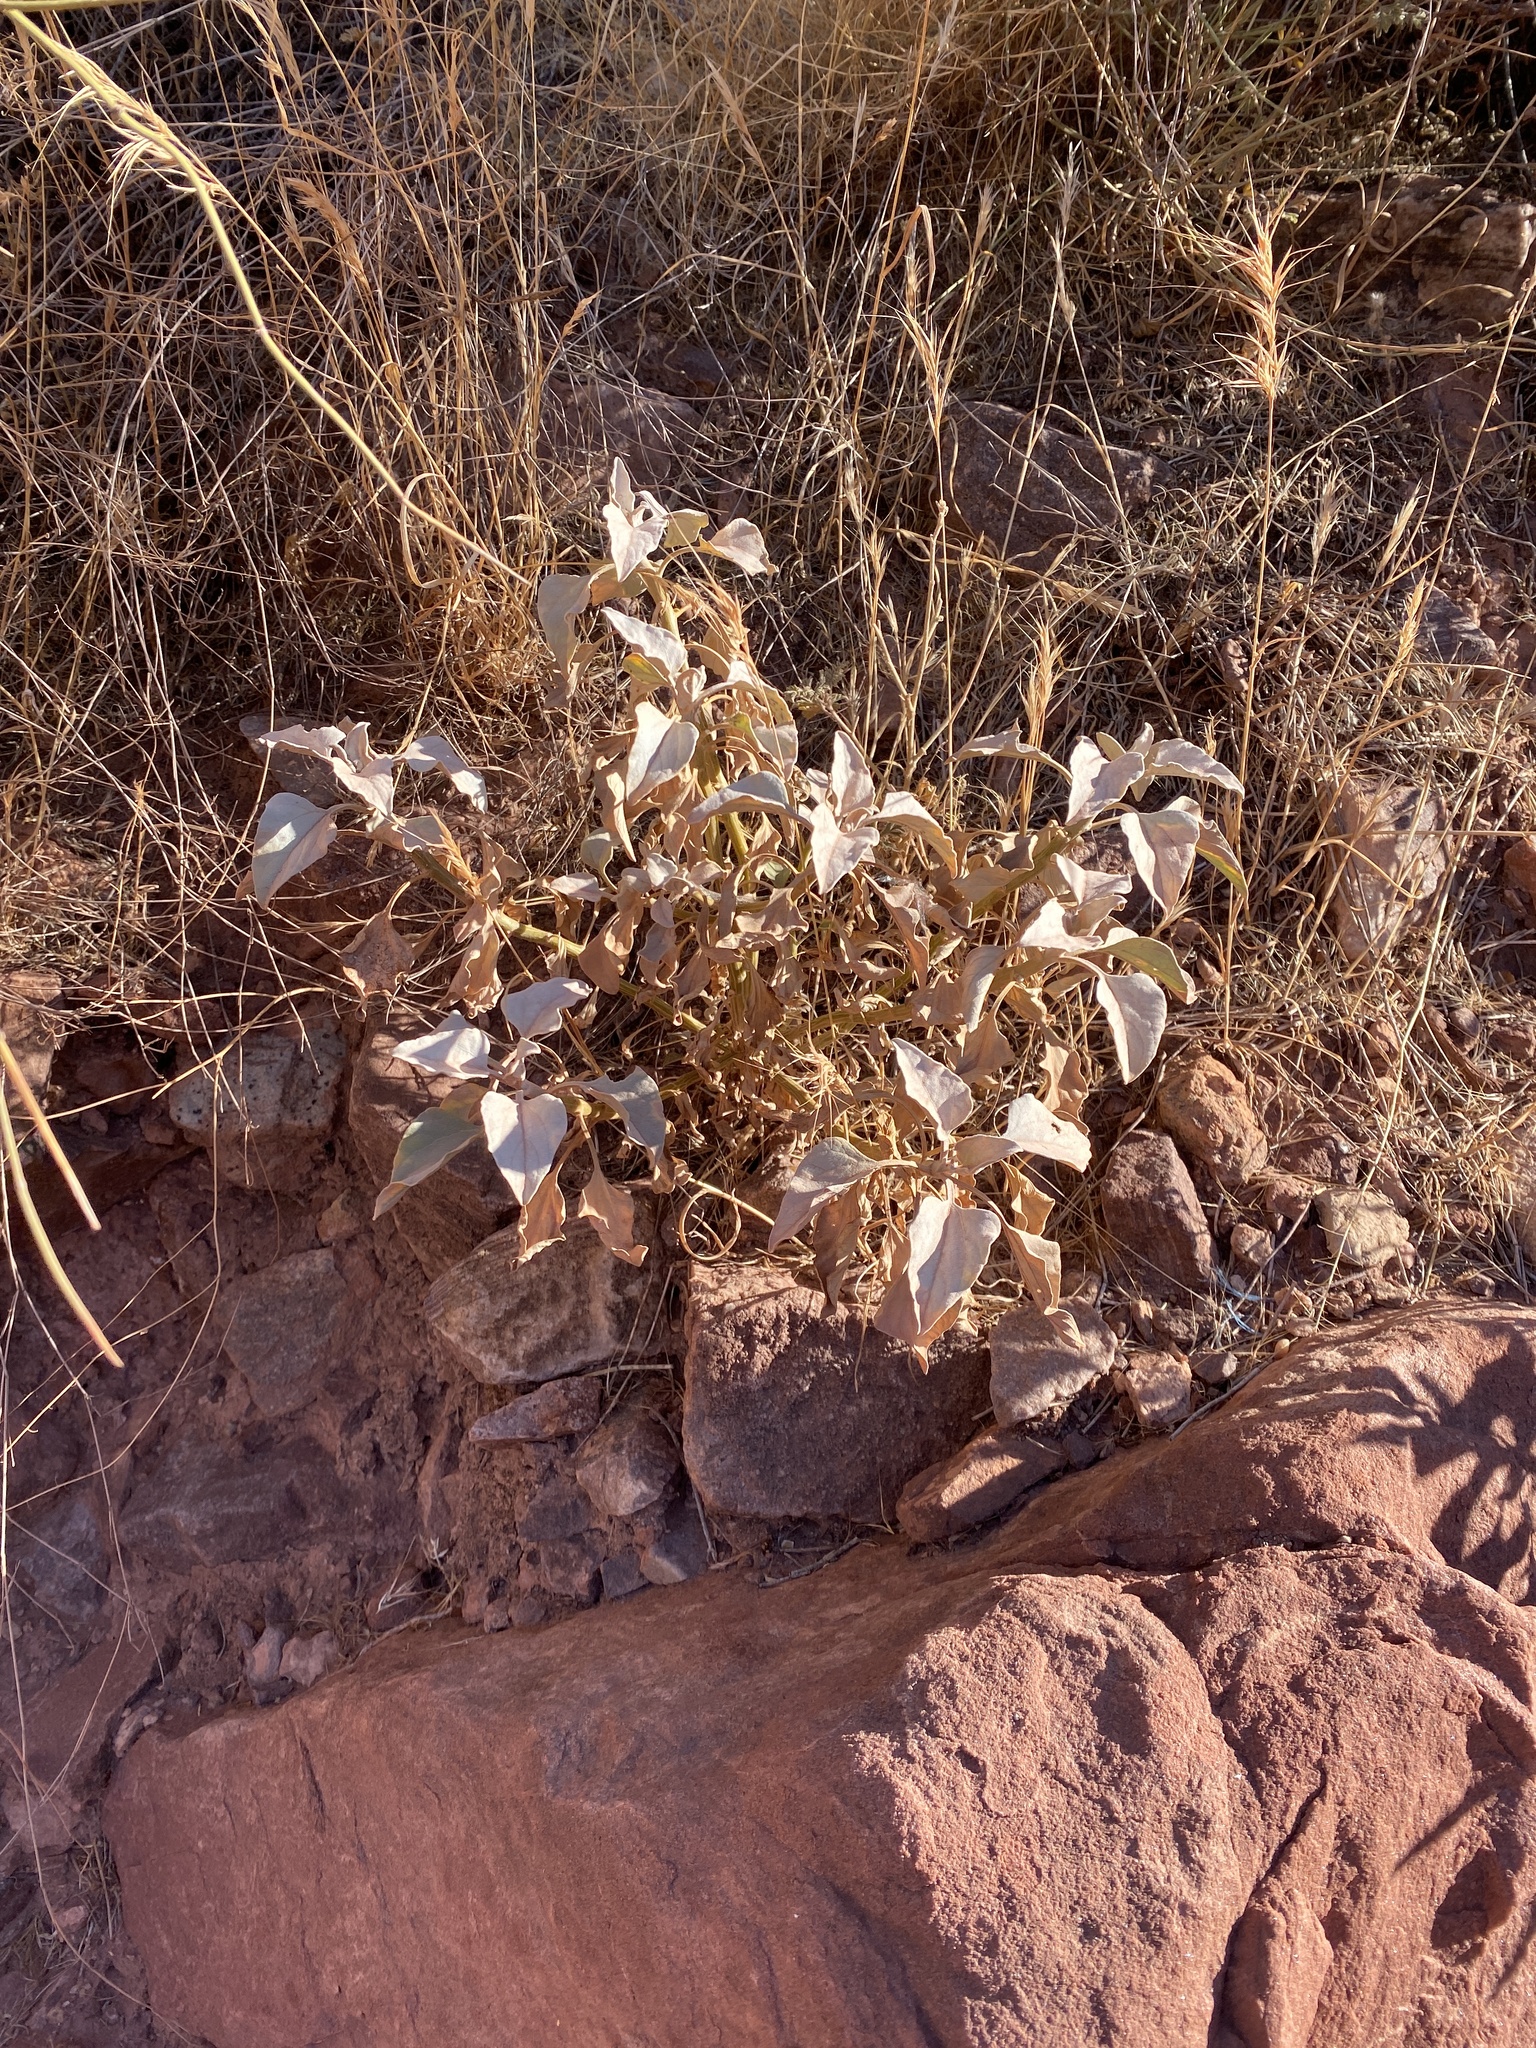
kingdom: Plantae
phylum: Tracheophyta
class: Magnoliopsida
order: Asterales
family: Asteraceae
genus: Encelia
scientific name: Encelia farinosa
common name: Brittlebush
